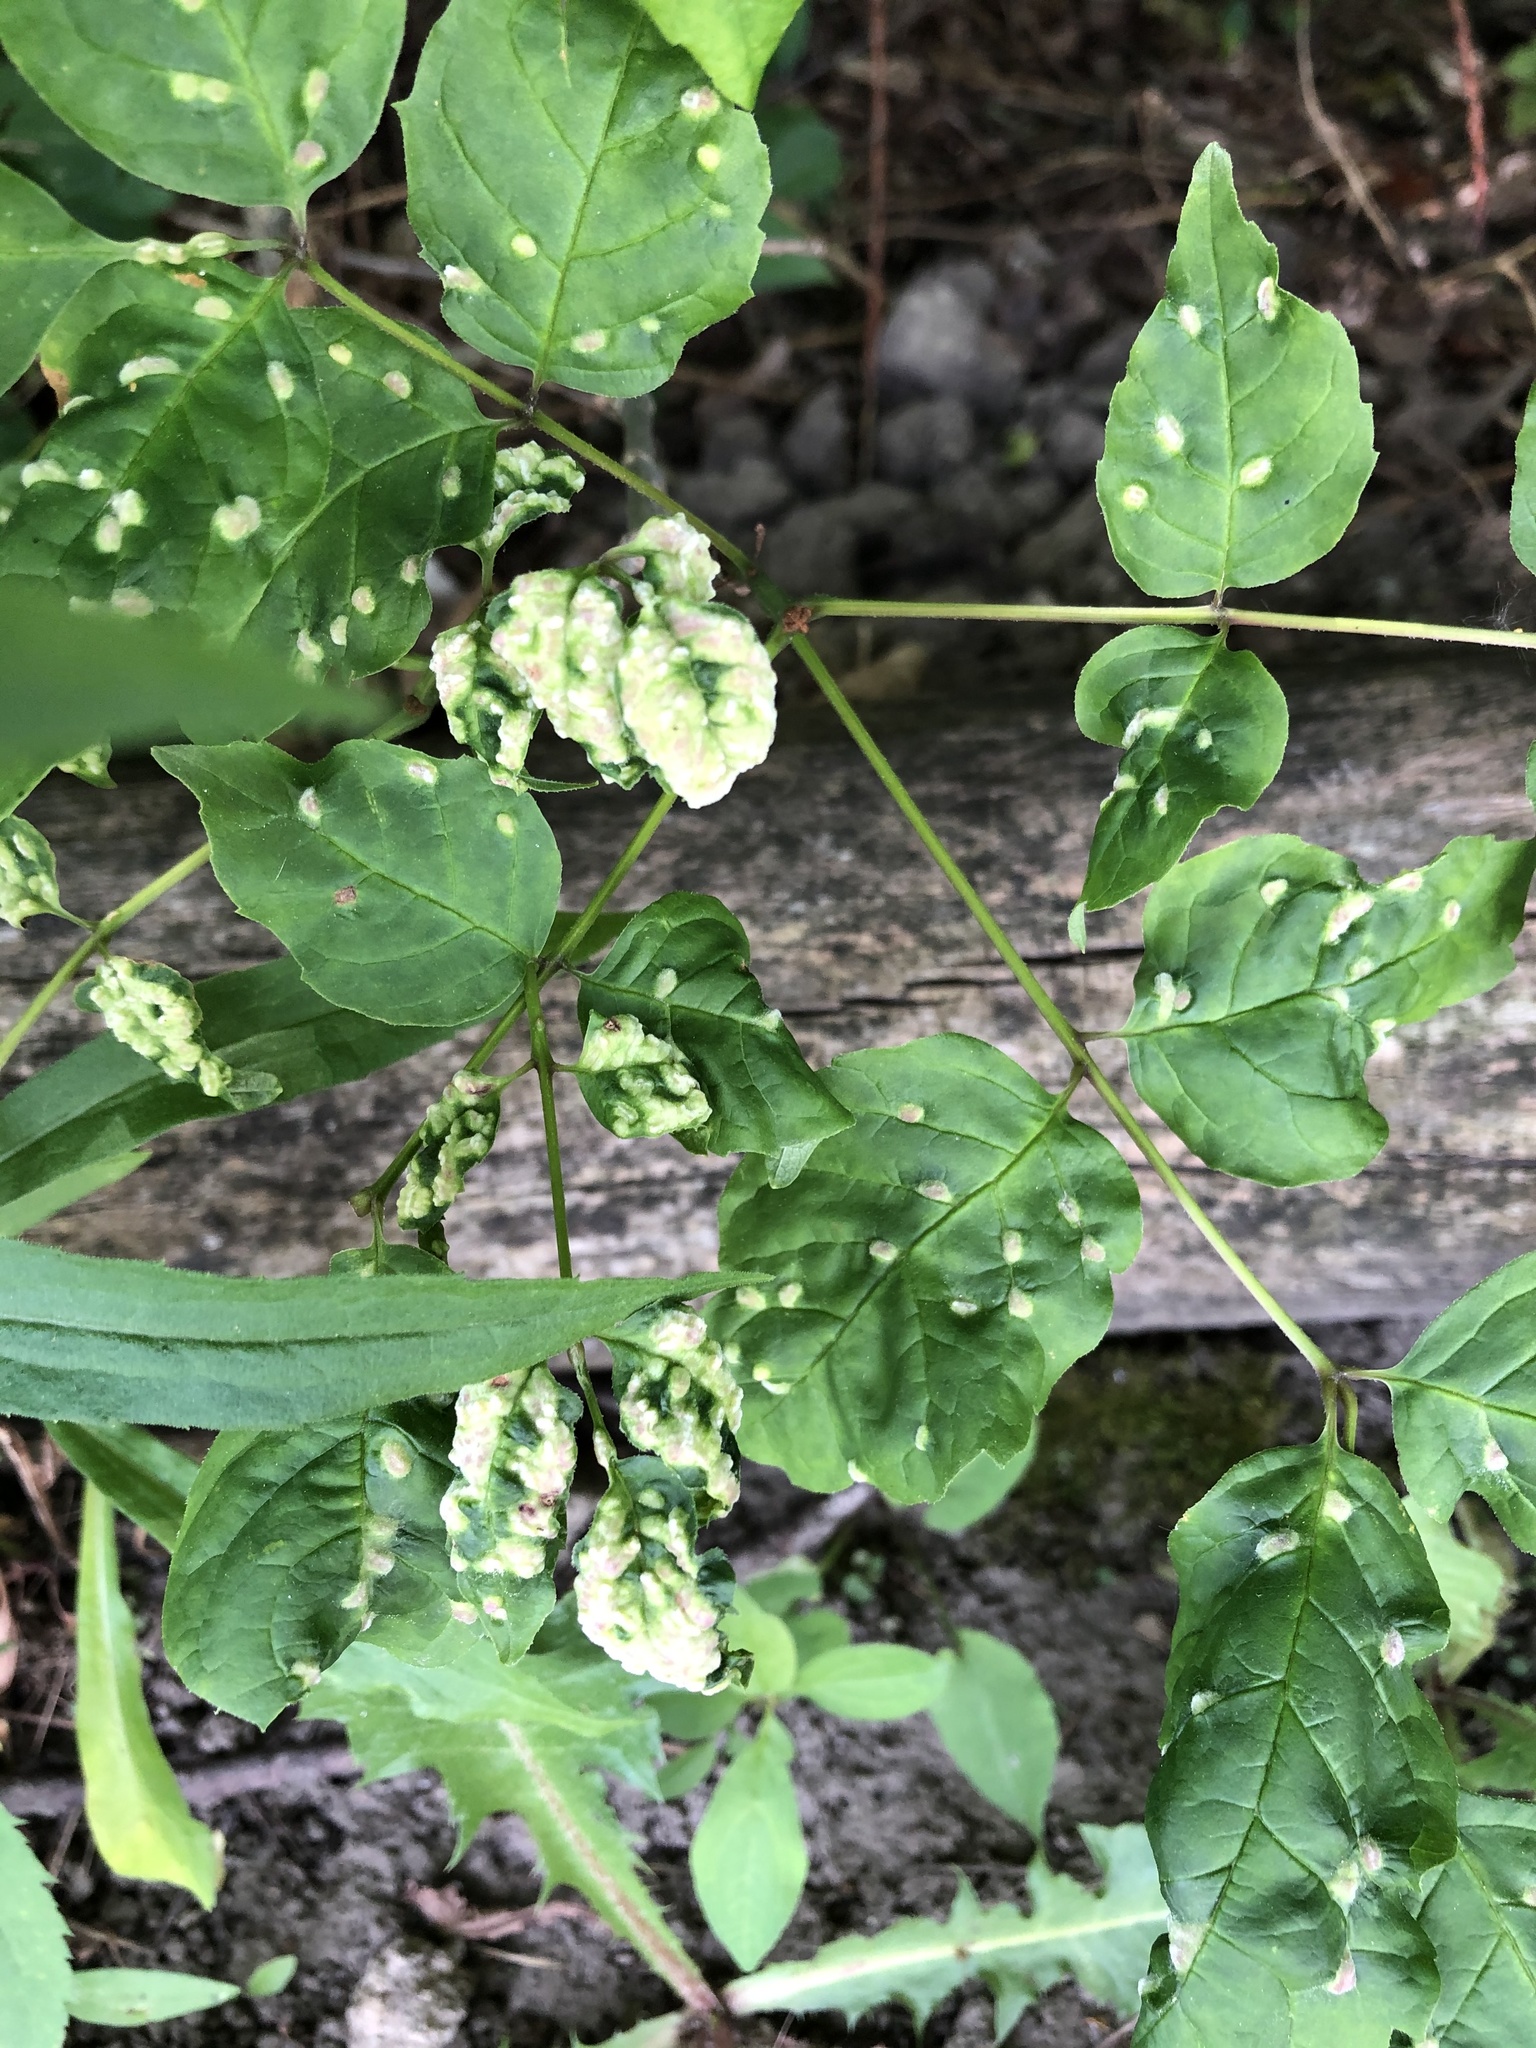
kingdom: Animalia
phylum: Arthropoda
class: Arachnida
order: Trombidiformes
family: Eriophyidae
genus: Aceria
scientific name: Aceria fraxinicola
